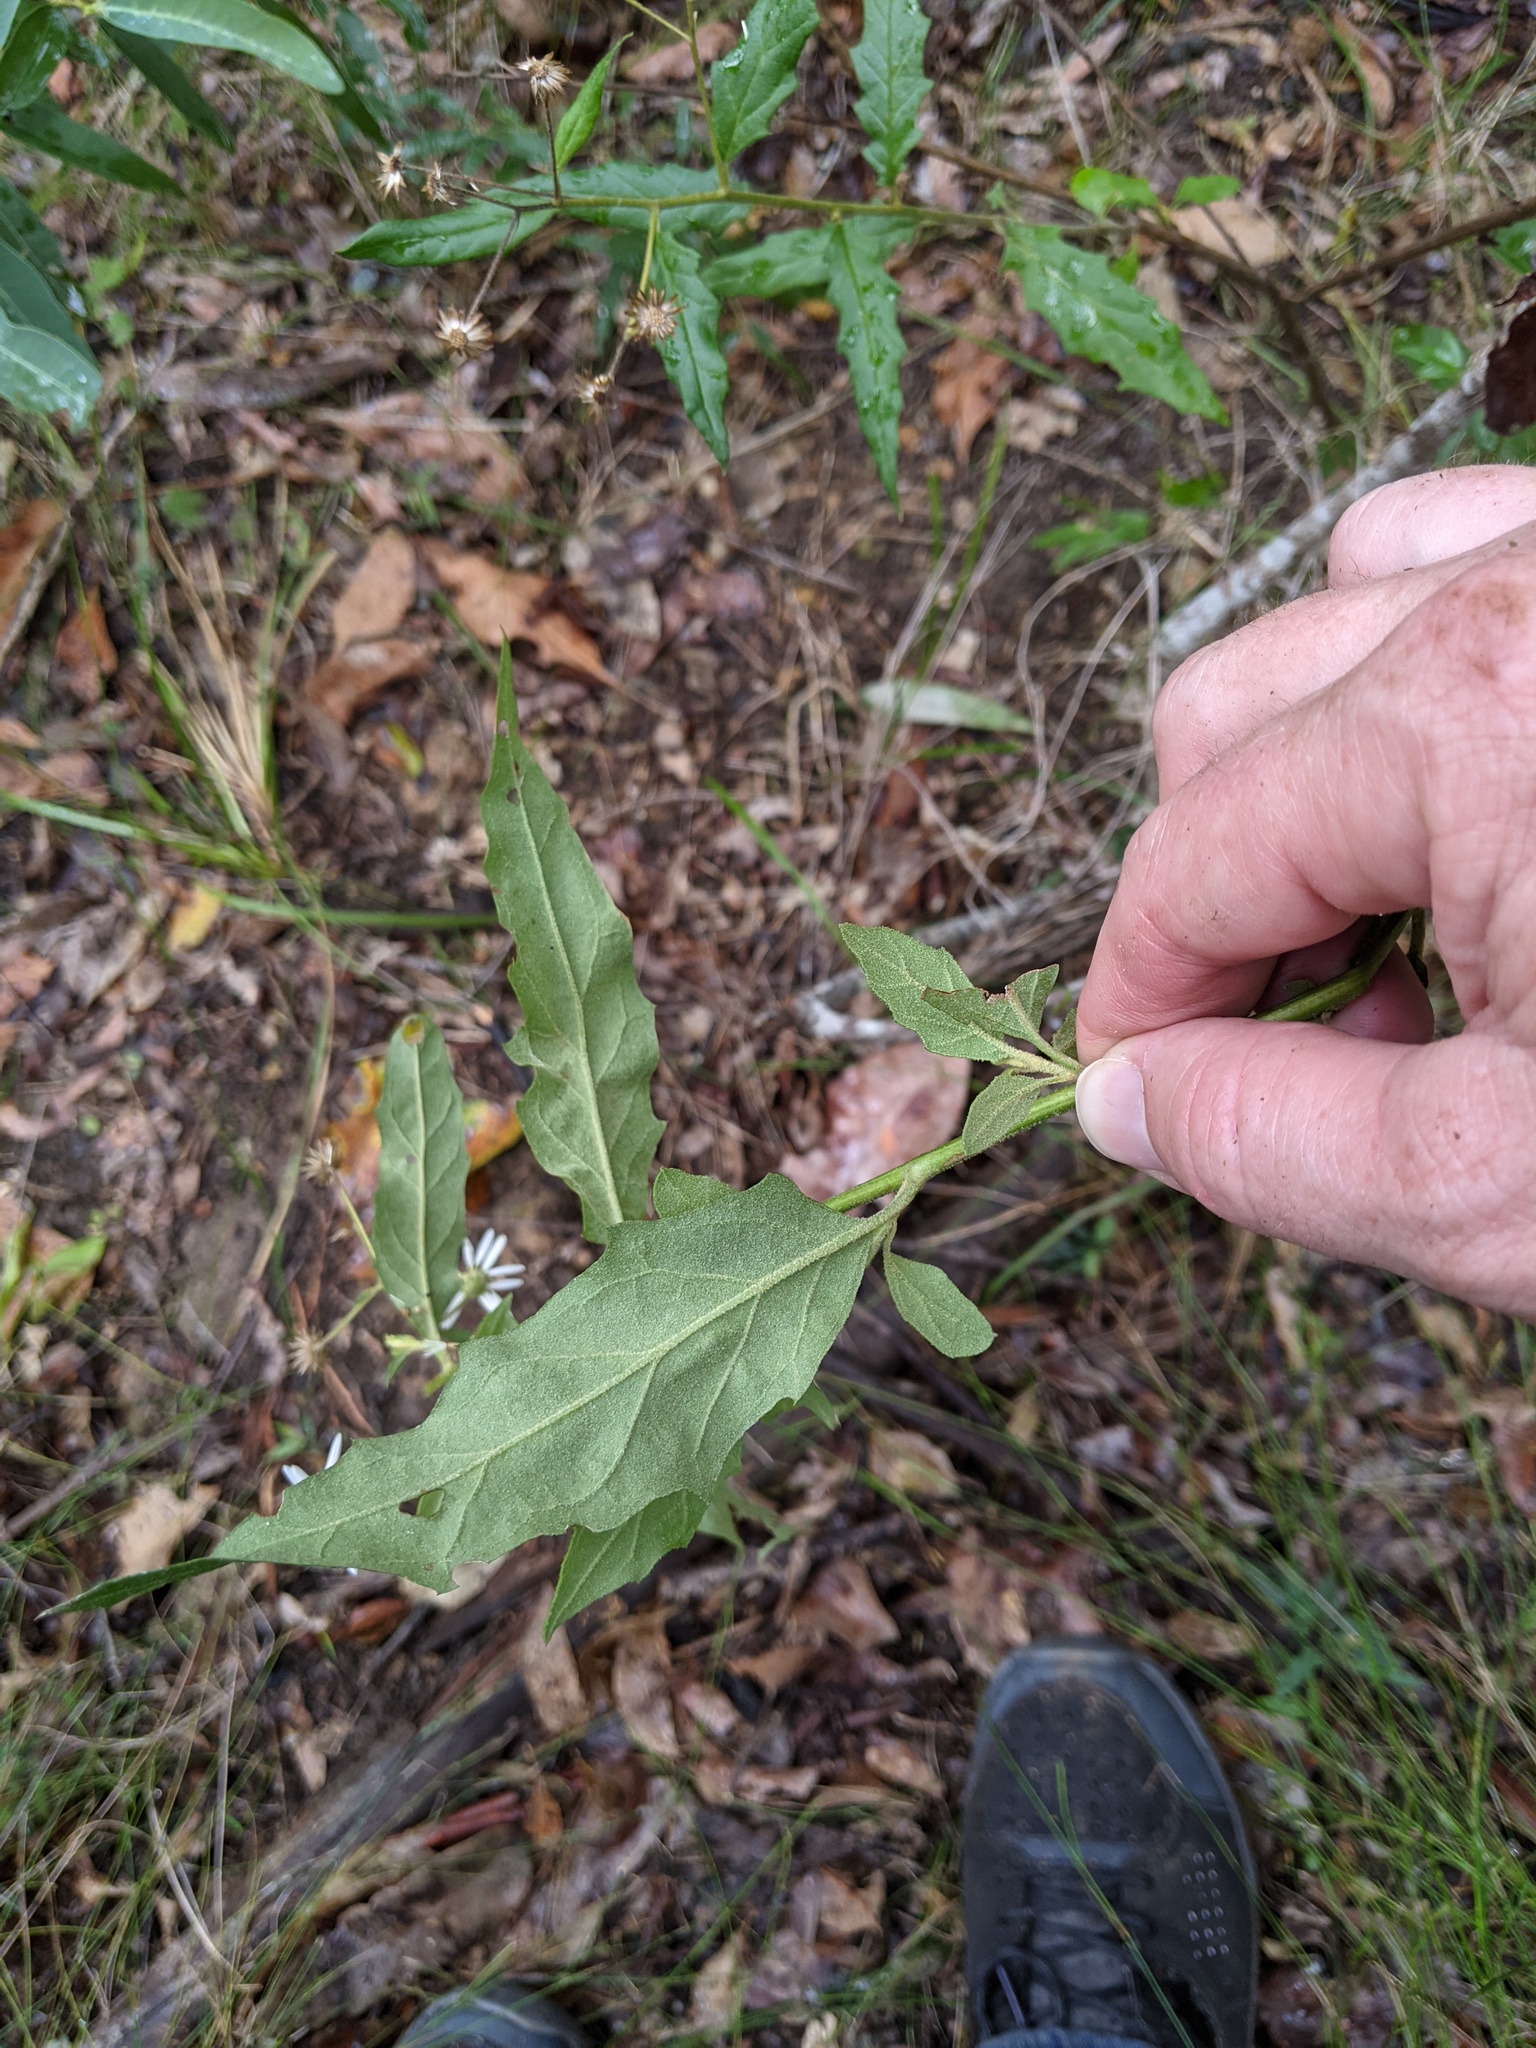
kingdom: Plantae
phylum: Tracheophyta
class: Magnoliopsida
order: Asterales
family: Asteraceae
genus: Olearia
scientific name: Olearia nernstii
